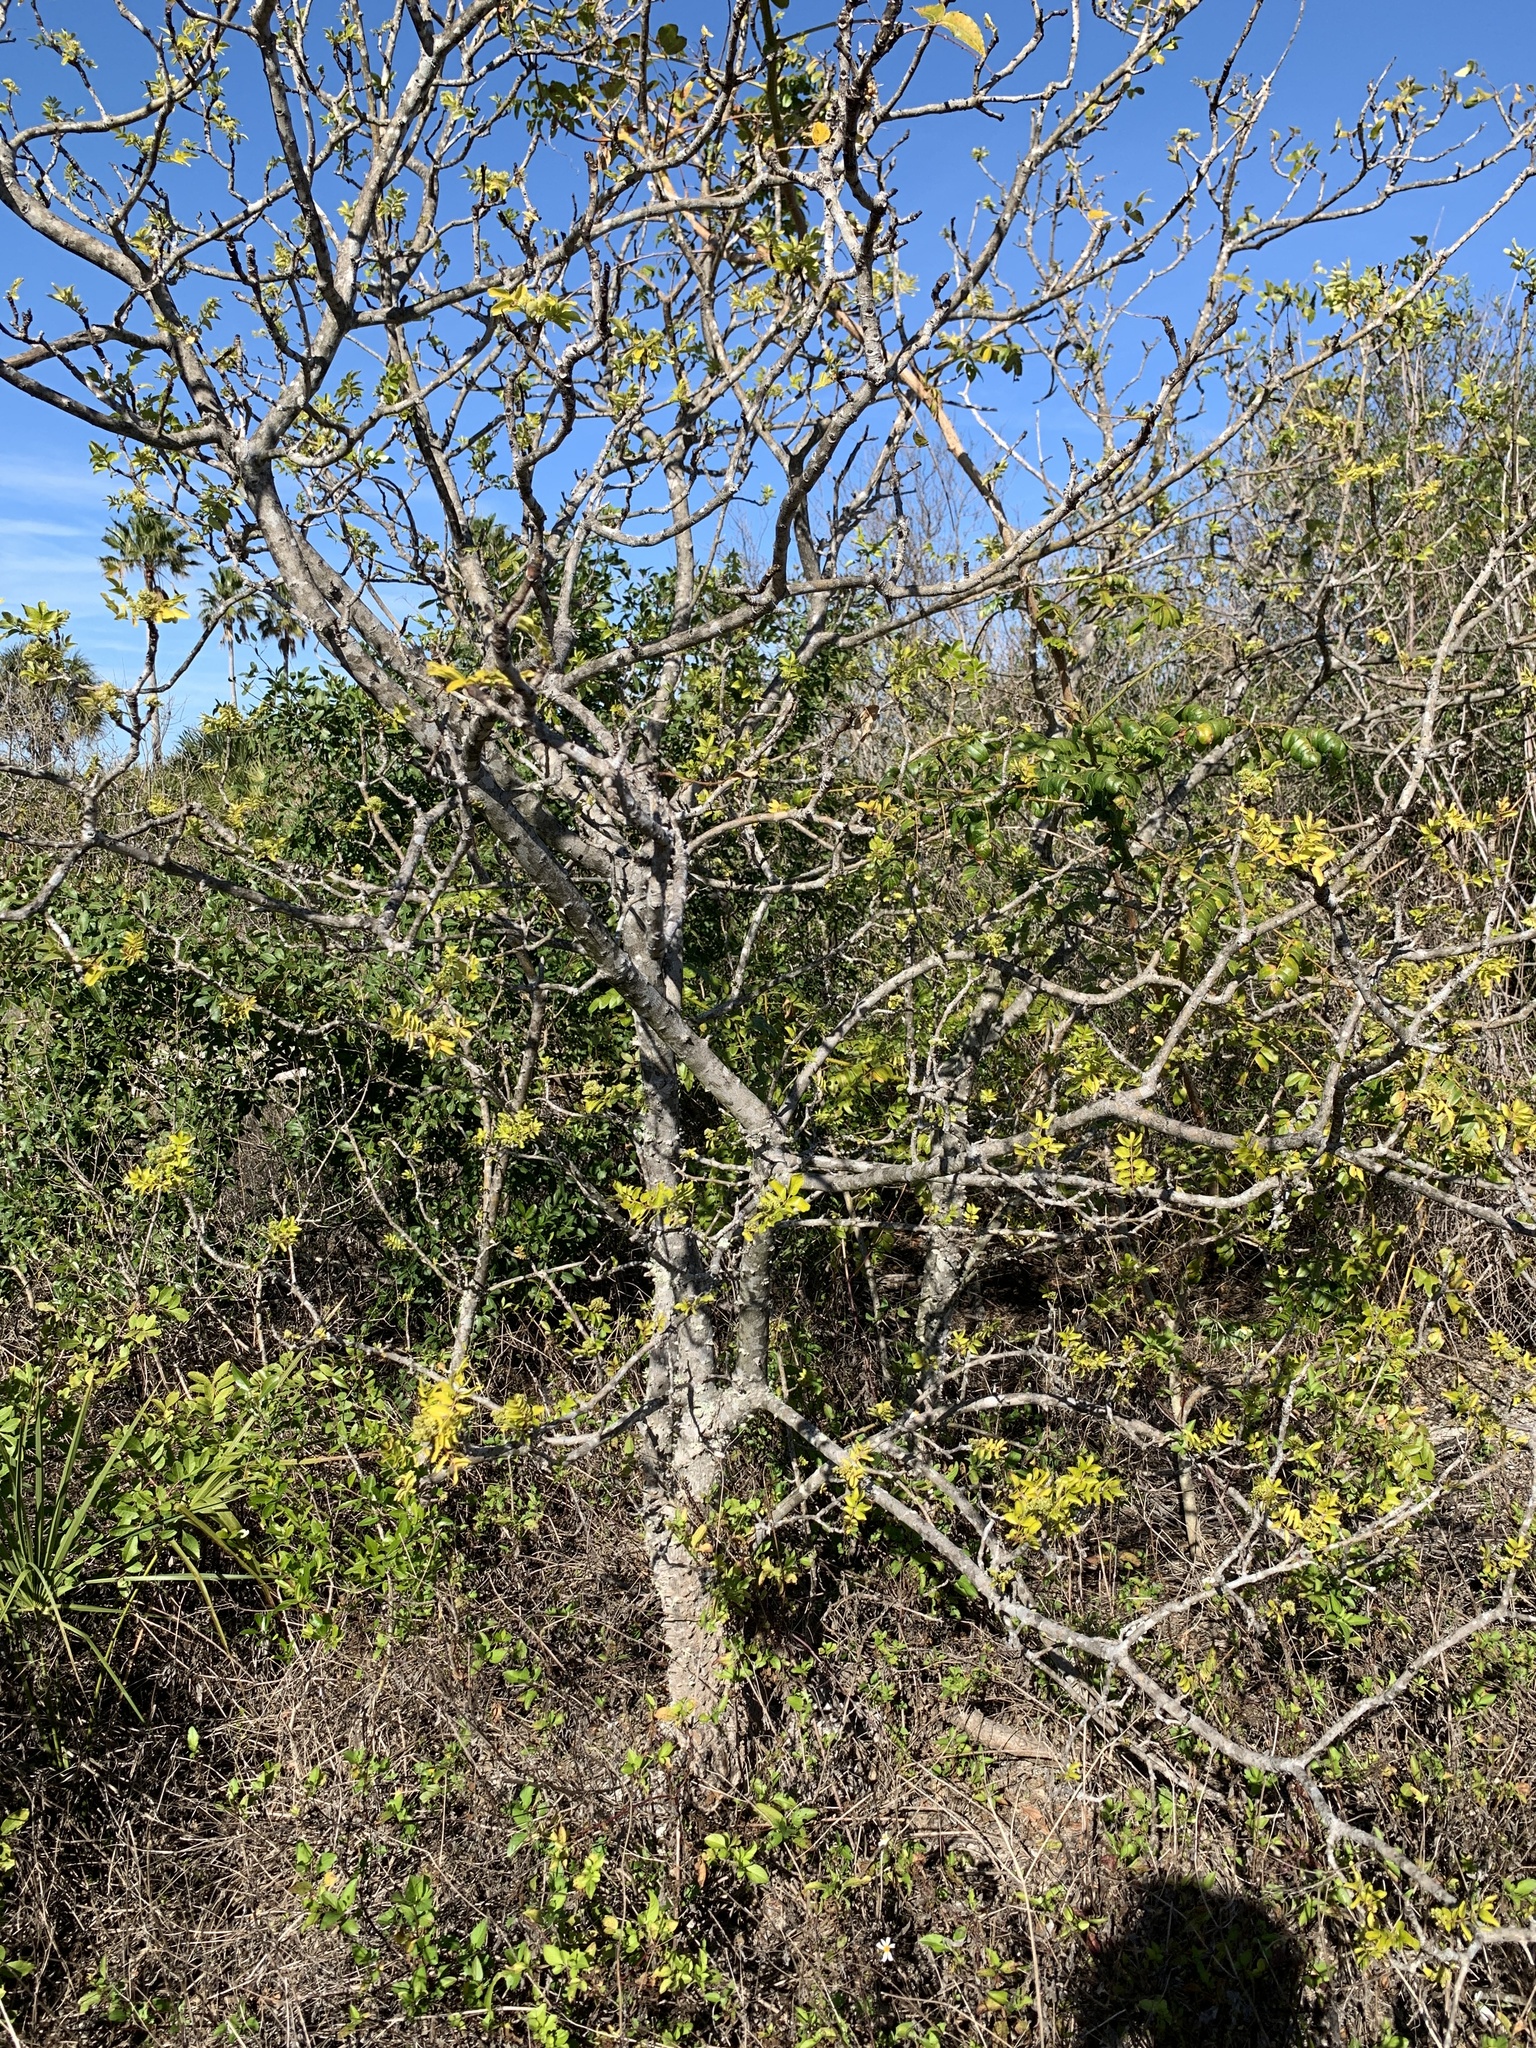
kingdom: Plantae
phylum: Tracheophyta
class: Magnoliopsida
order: Sapindales
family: Rutaceae
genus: Zanthoxylum
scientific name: Zanthoxylum clava-herculis
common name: Hercules'-club
